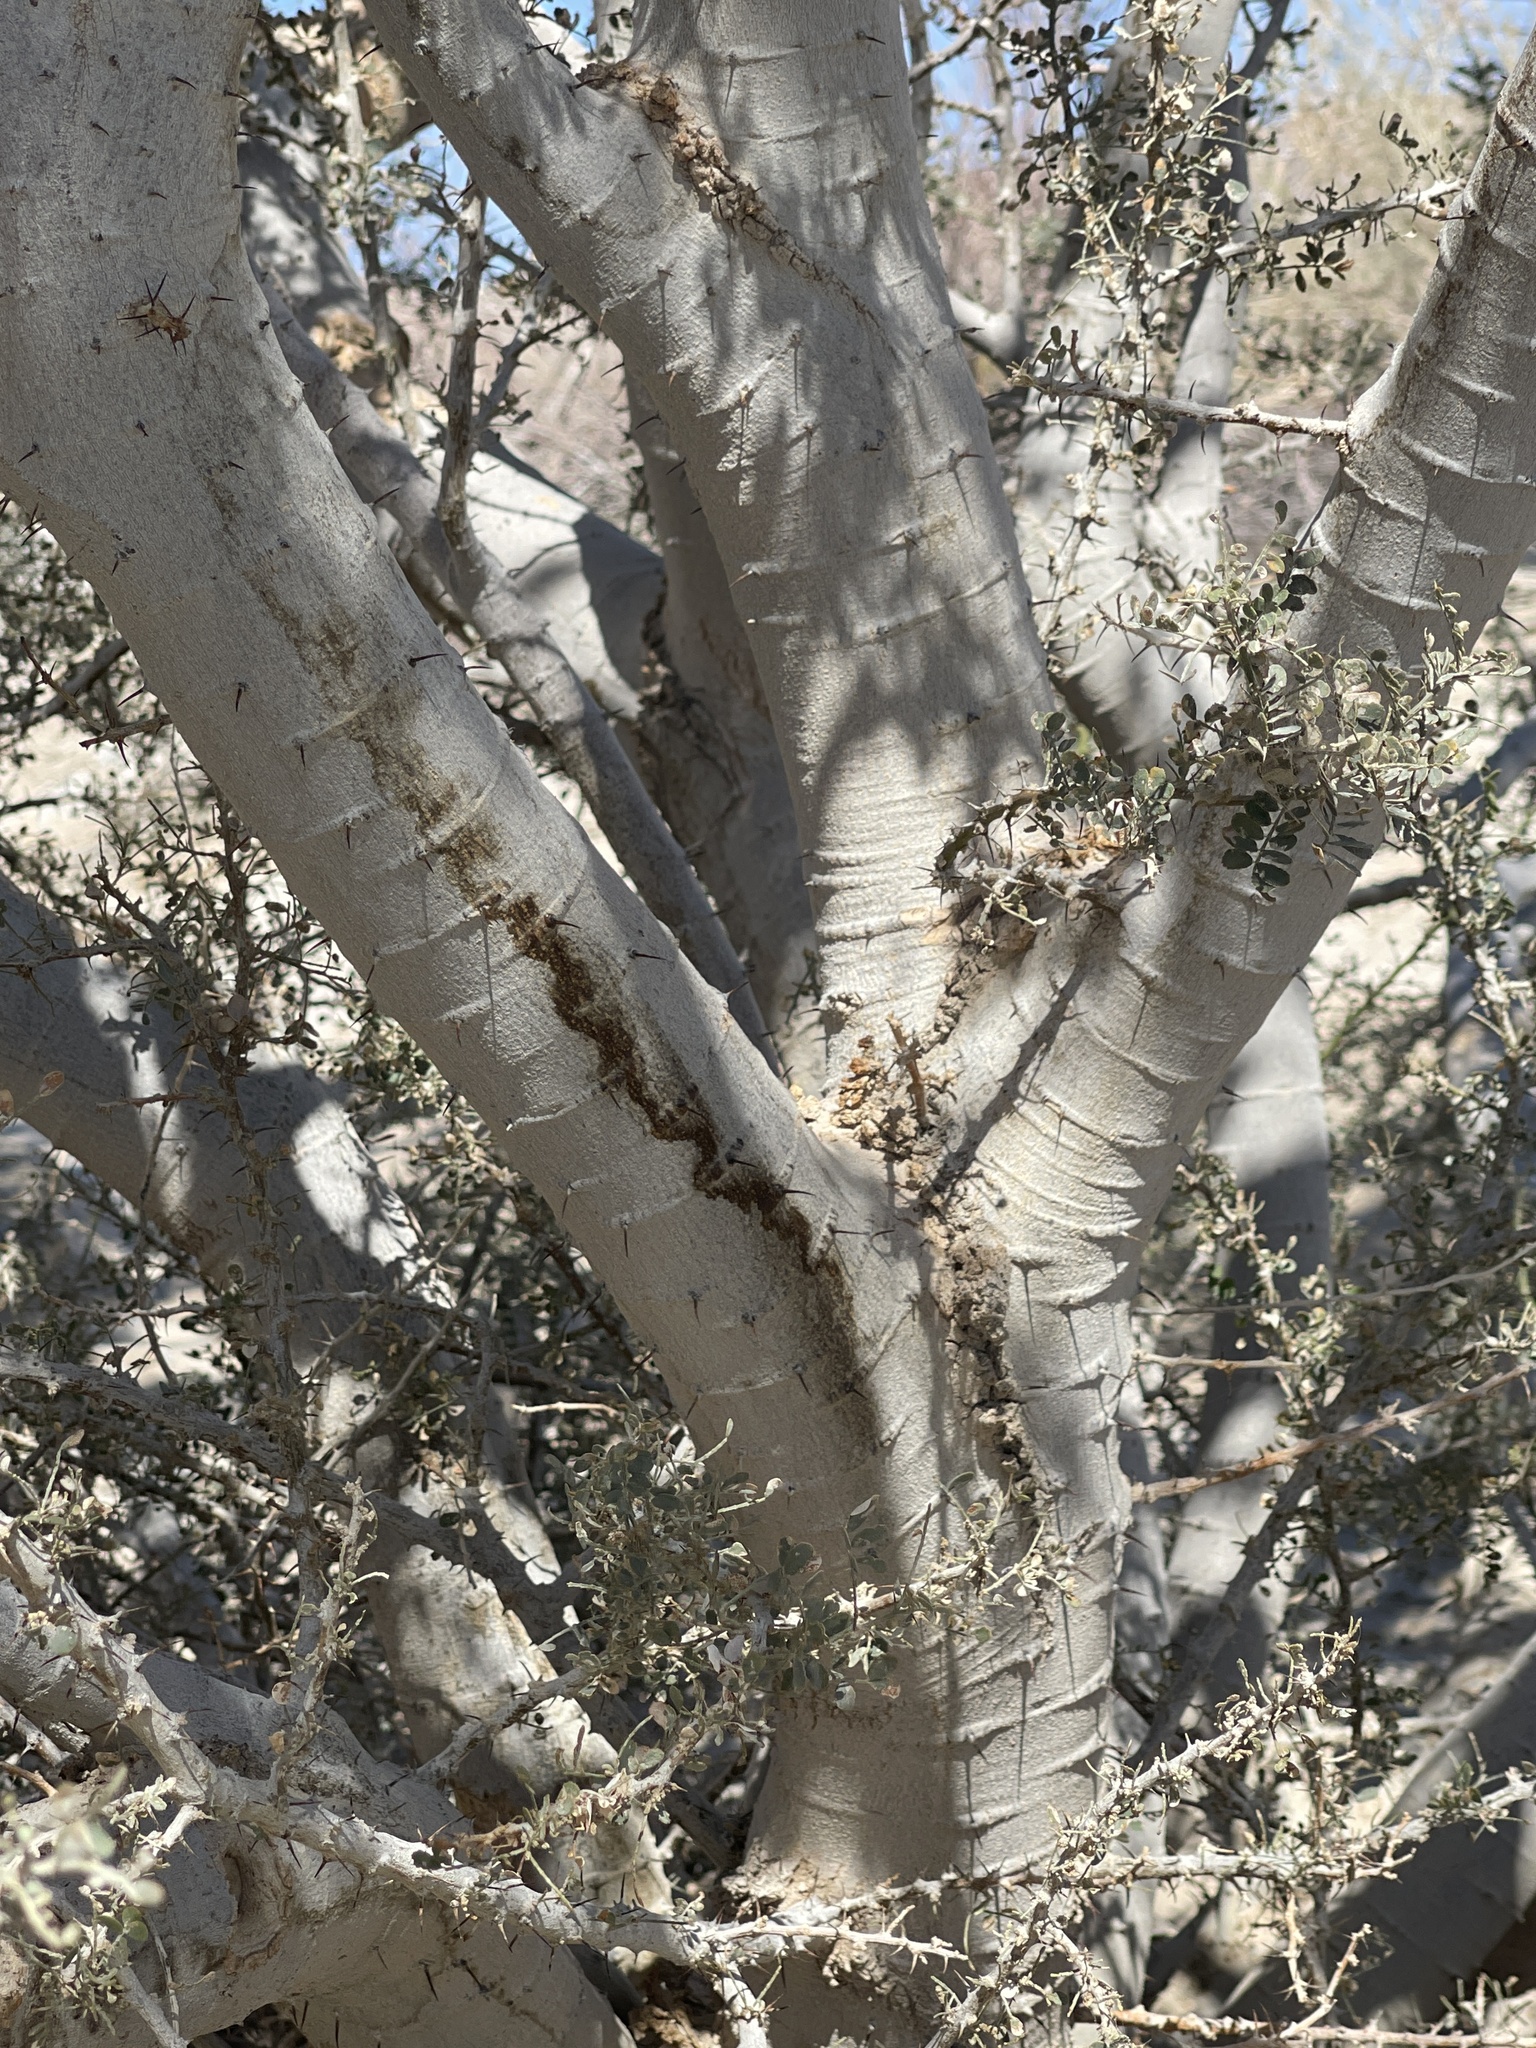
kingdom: Plantae
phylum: Tracheophyta
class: Magnoliopsida
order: Fabales
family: Fabaceae
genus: Olneya
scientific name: Olneya tesota
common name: Desert ironwood
